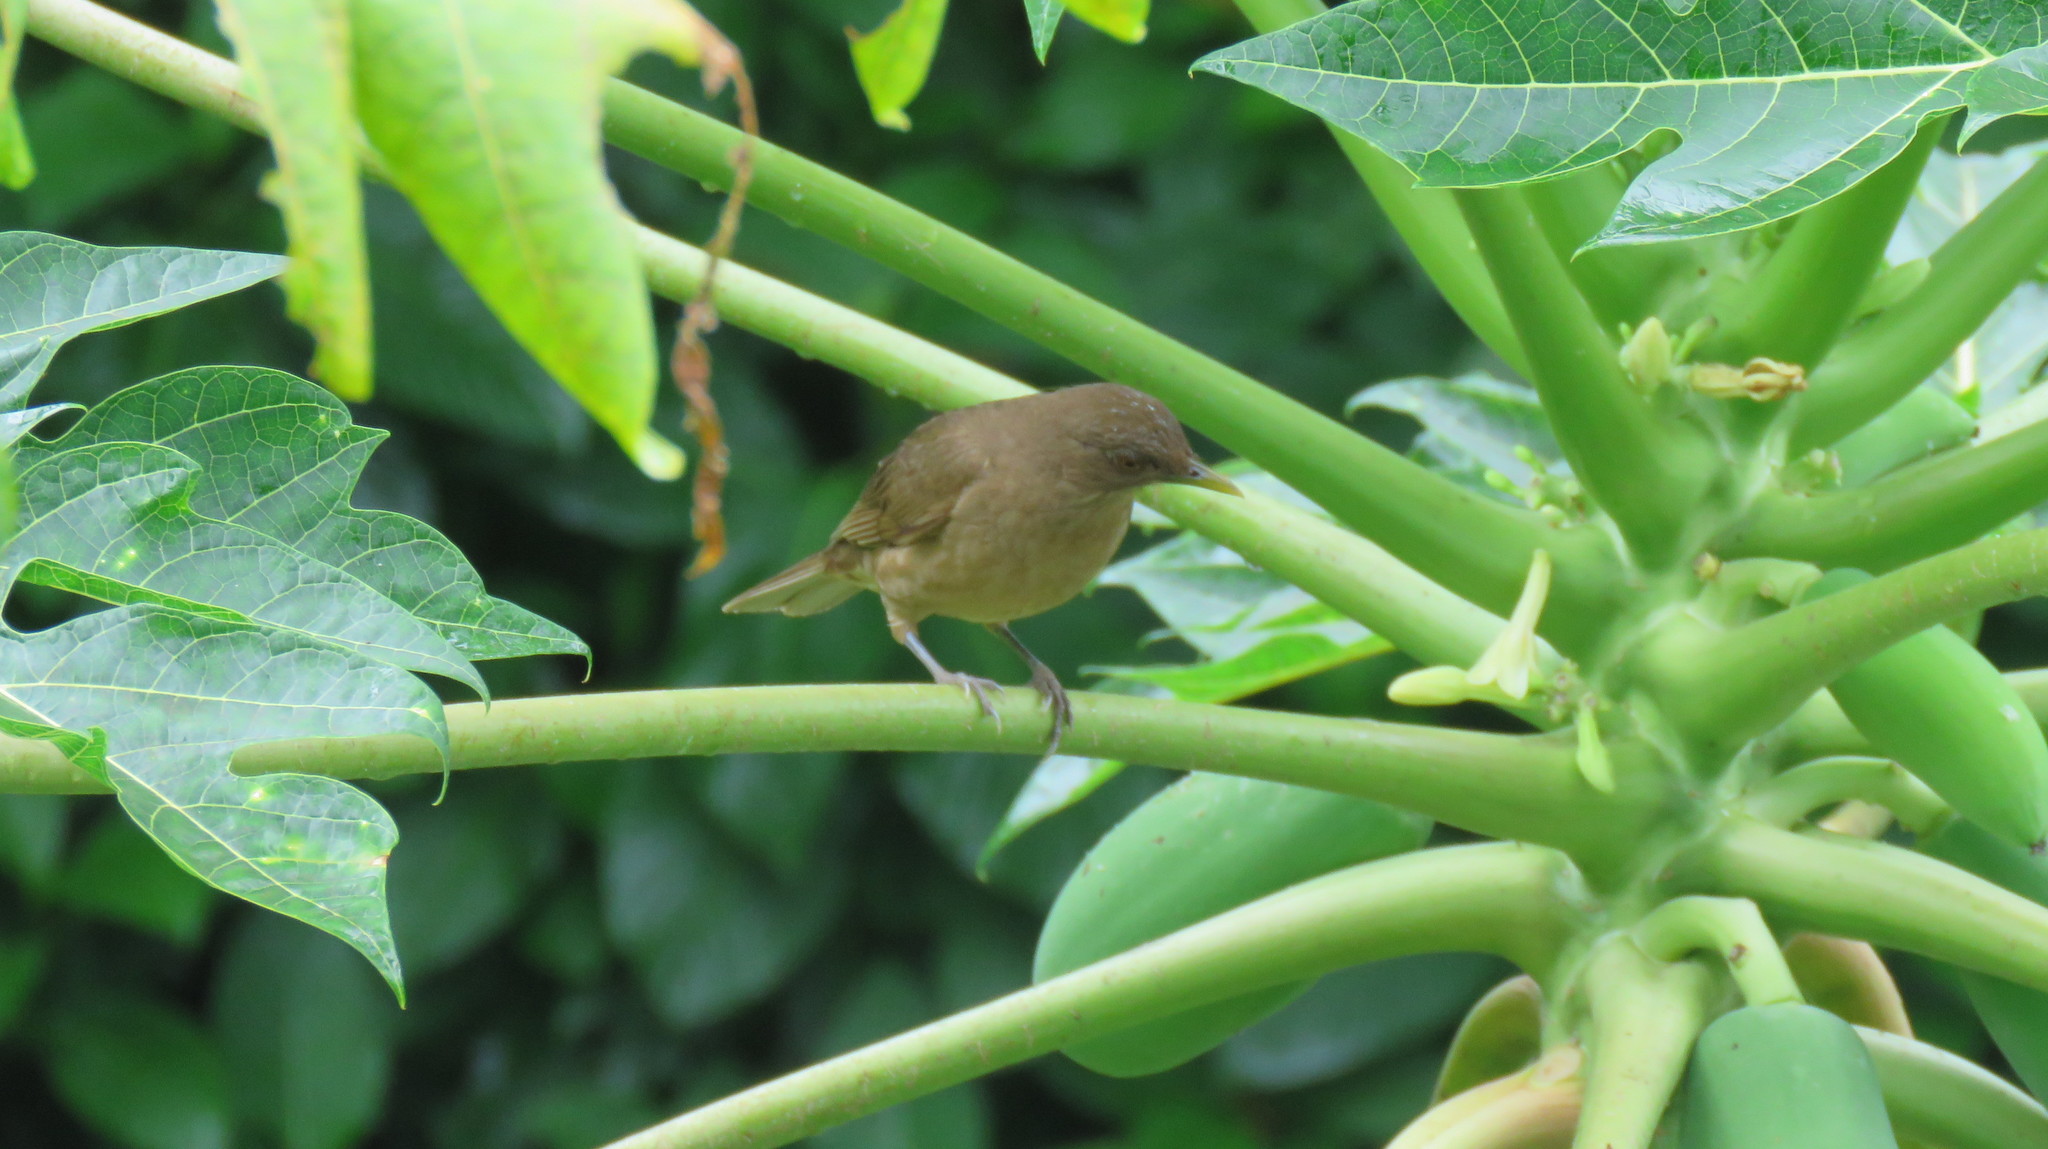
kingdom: Animalia
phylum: Chordata
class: Aves
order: Passeriformes
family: Turdidae
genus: Turdus
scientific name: Turdus grayi
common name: Clay-colored thrush
